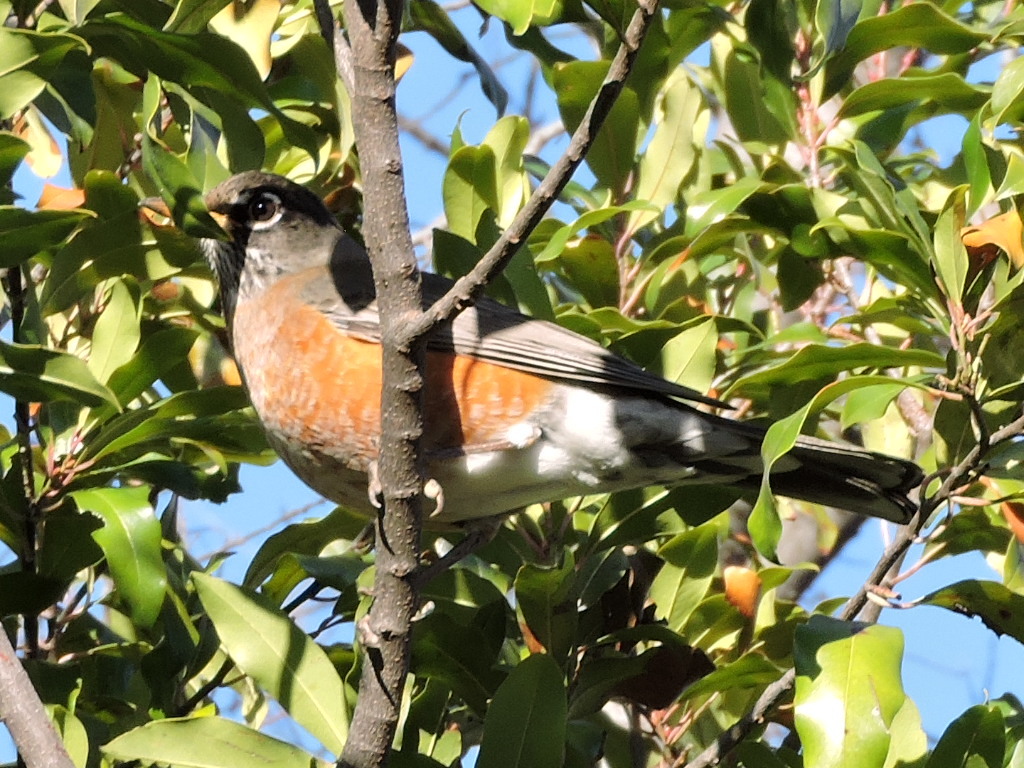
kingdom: Animalia
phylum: Chordata
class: Aves
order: Passeriformes
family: Turdidae
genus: Turdus
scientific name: Turdus migratorius
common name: American robin
